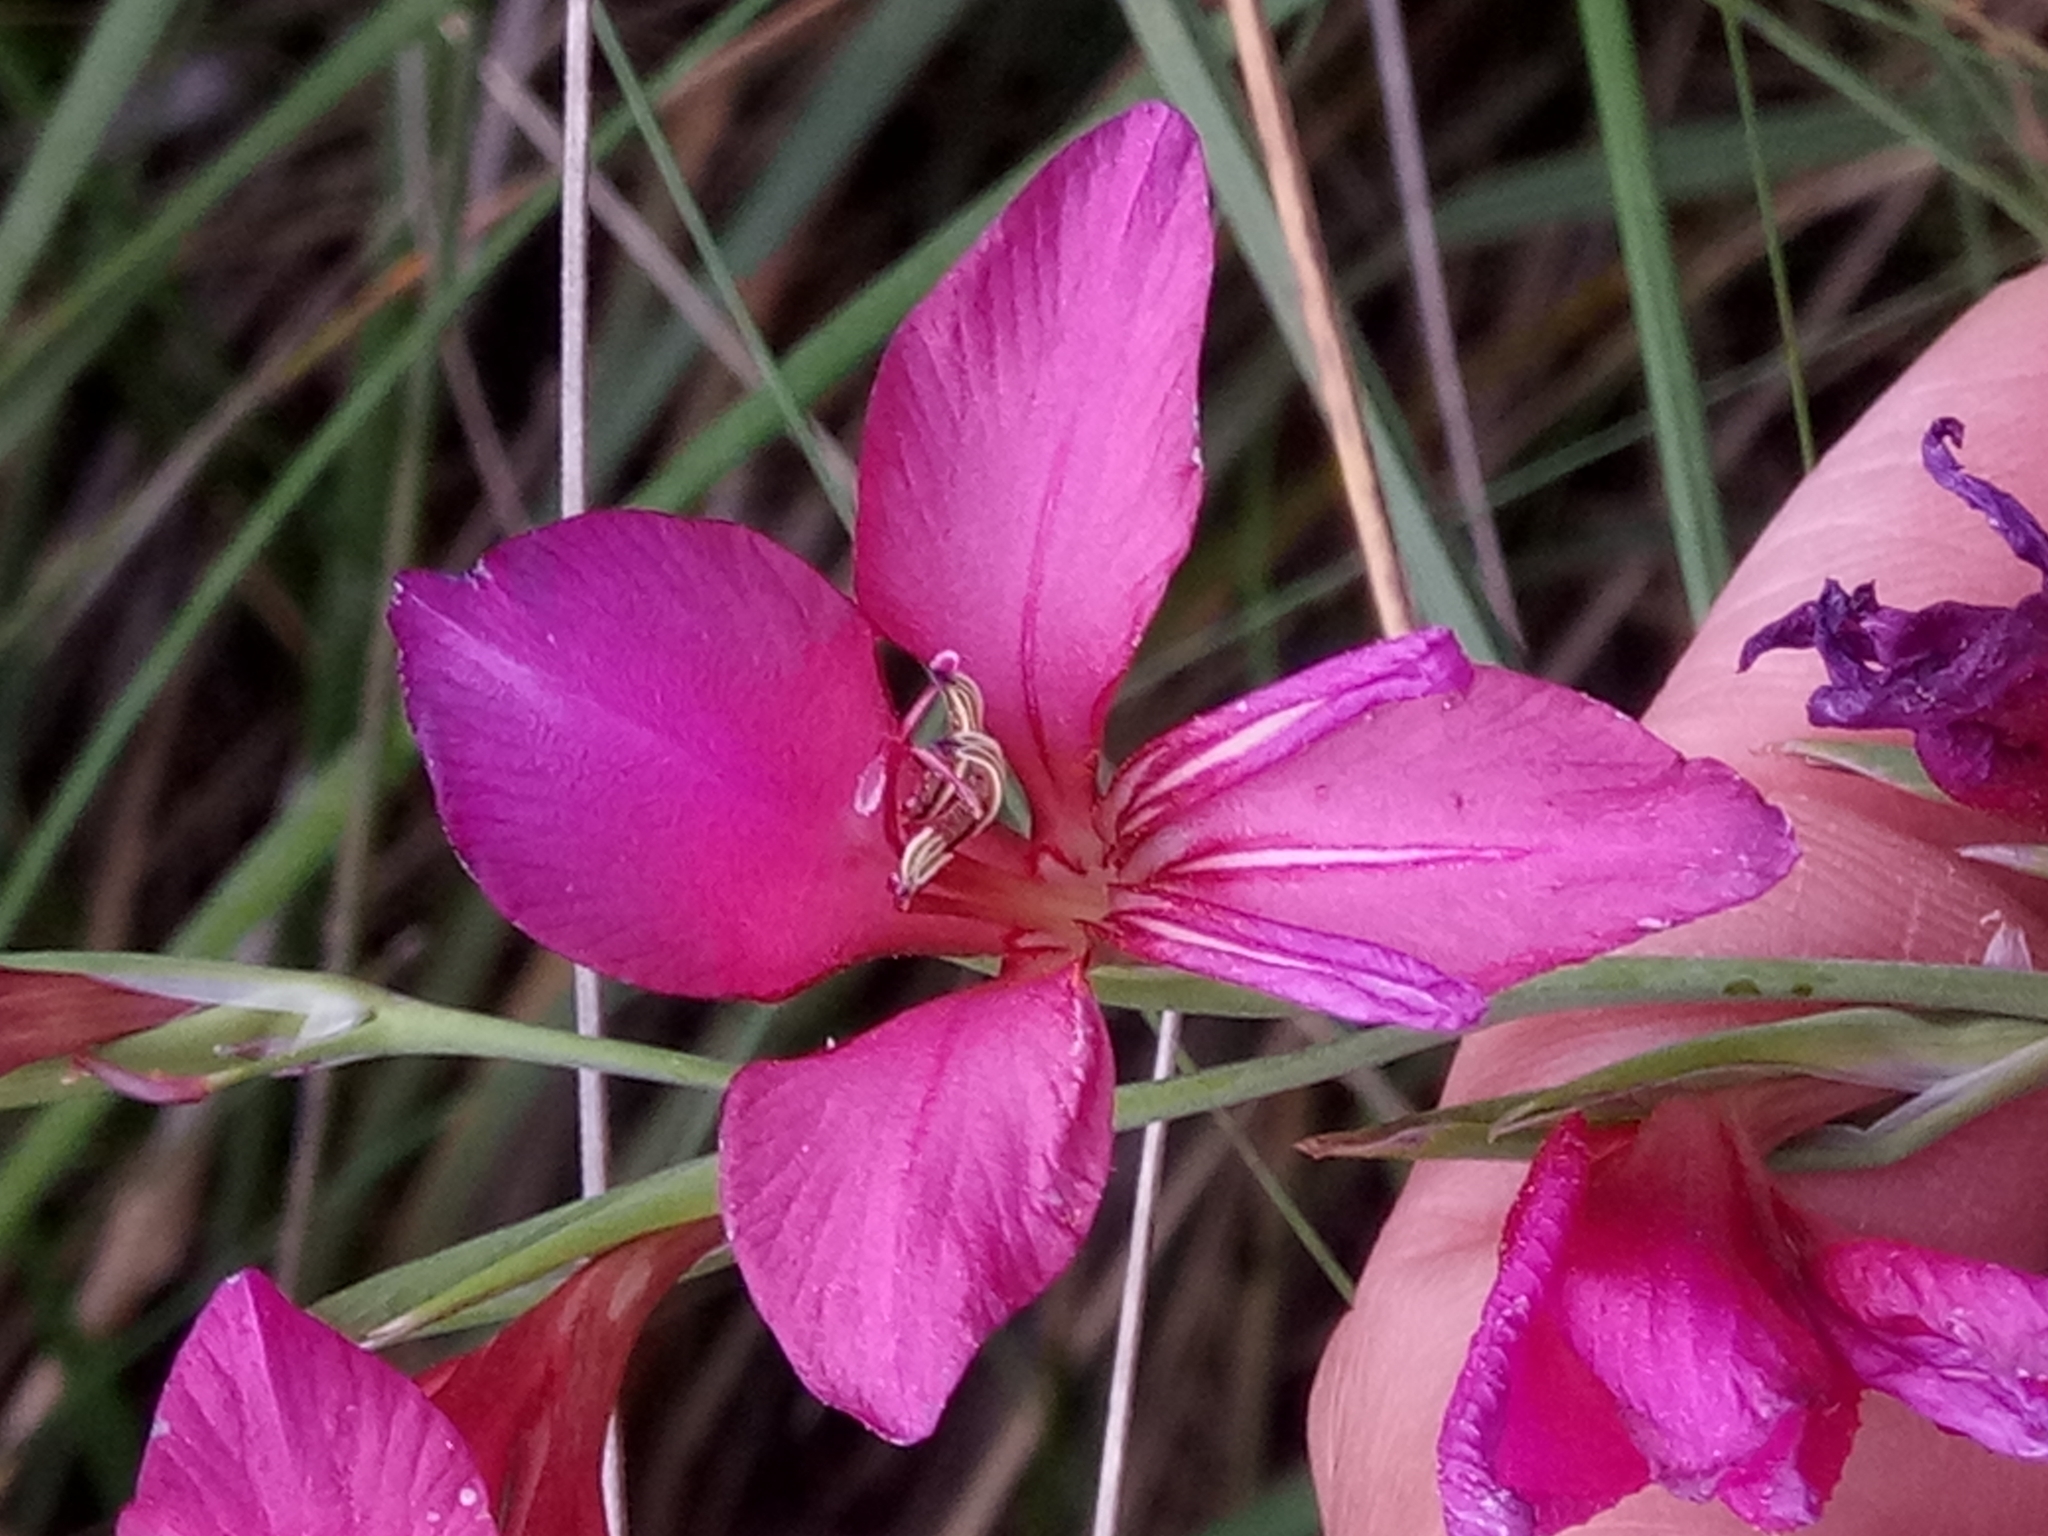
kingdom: Plantae
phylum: Tracheophyta
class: Liliopsida
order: Asparagales
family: Iridaceae
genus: Gladiolus
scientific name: Gladiolus dubius
